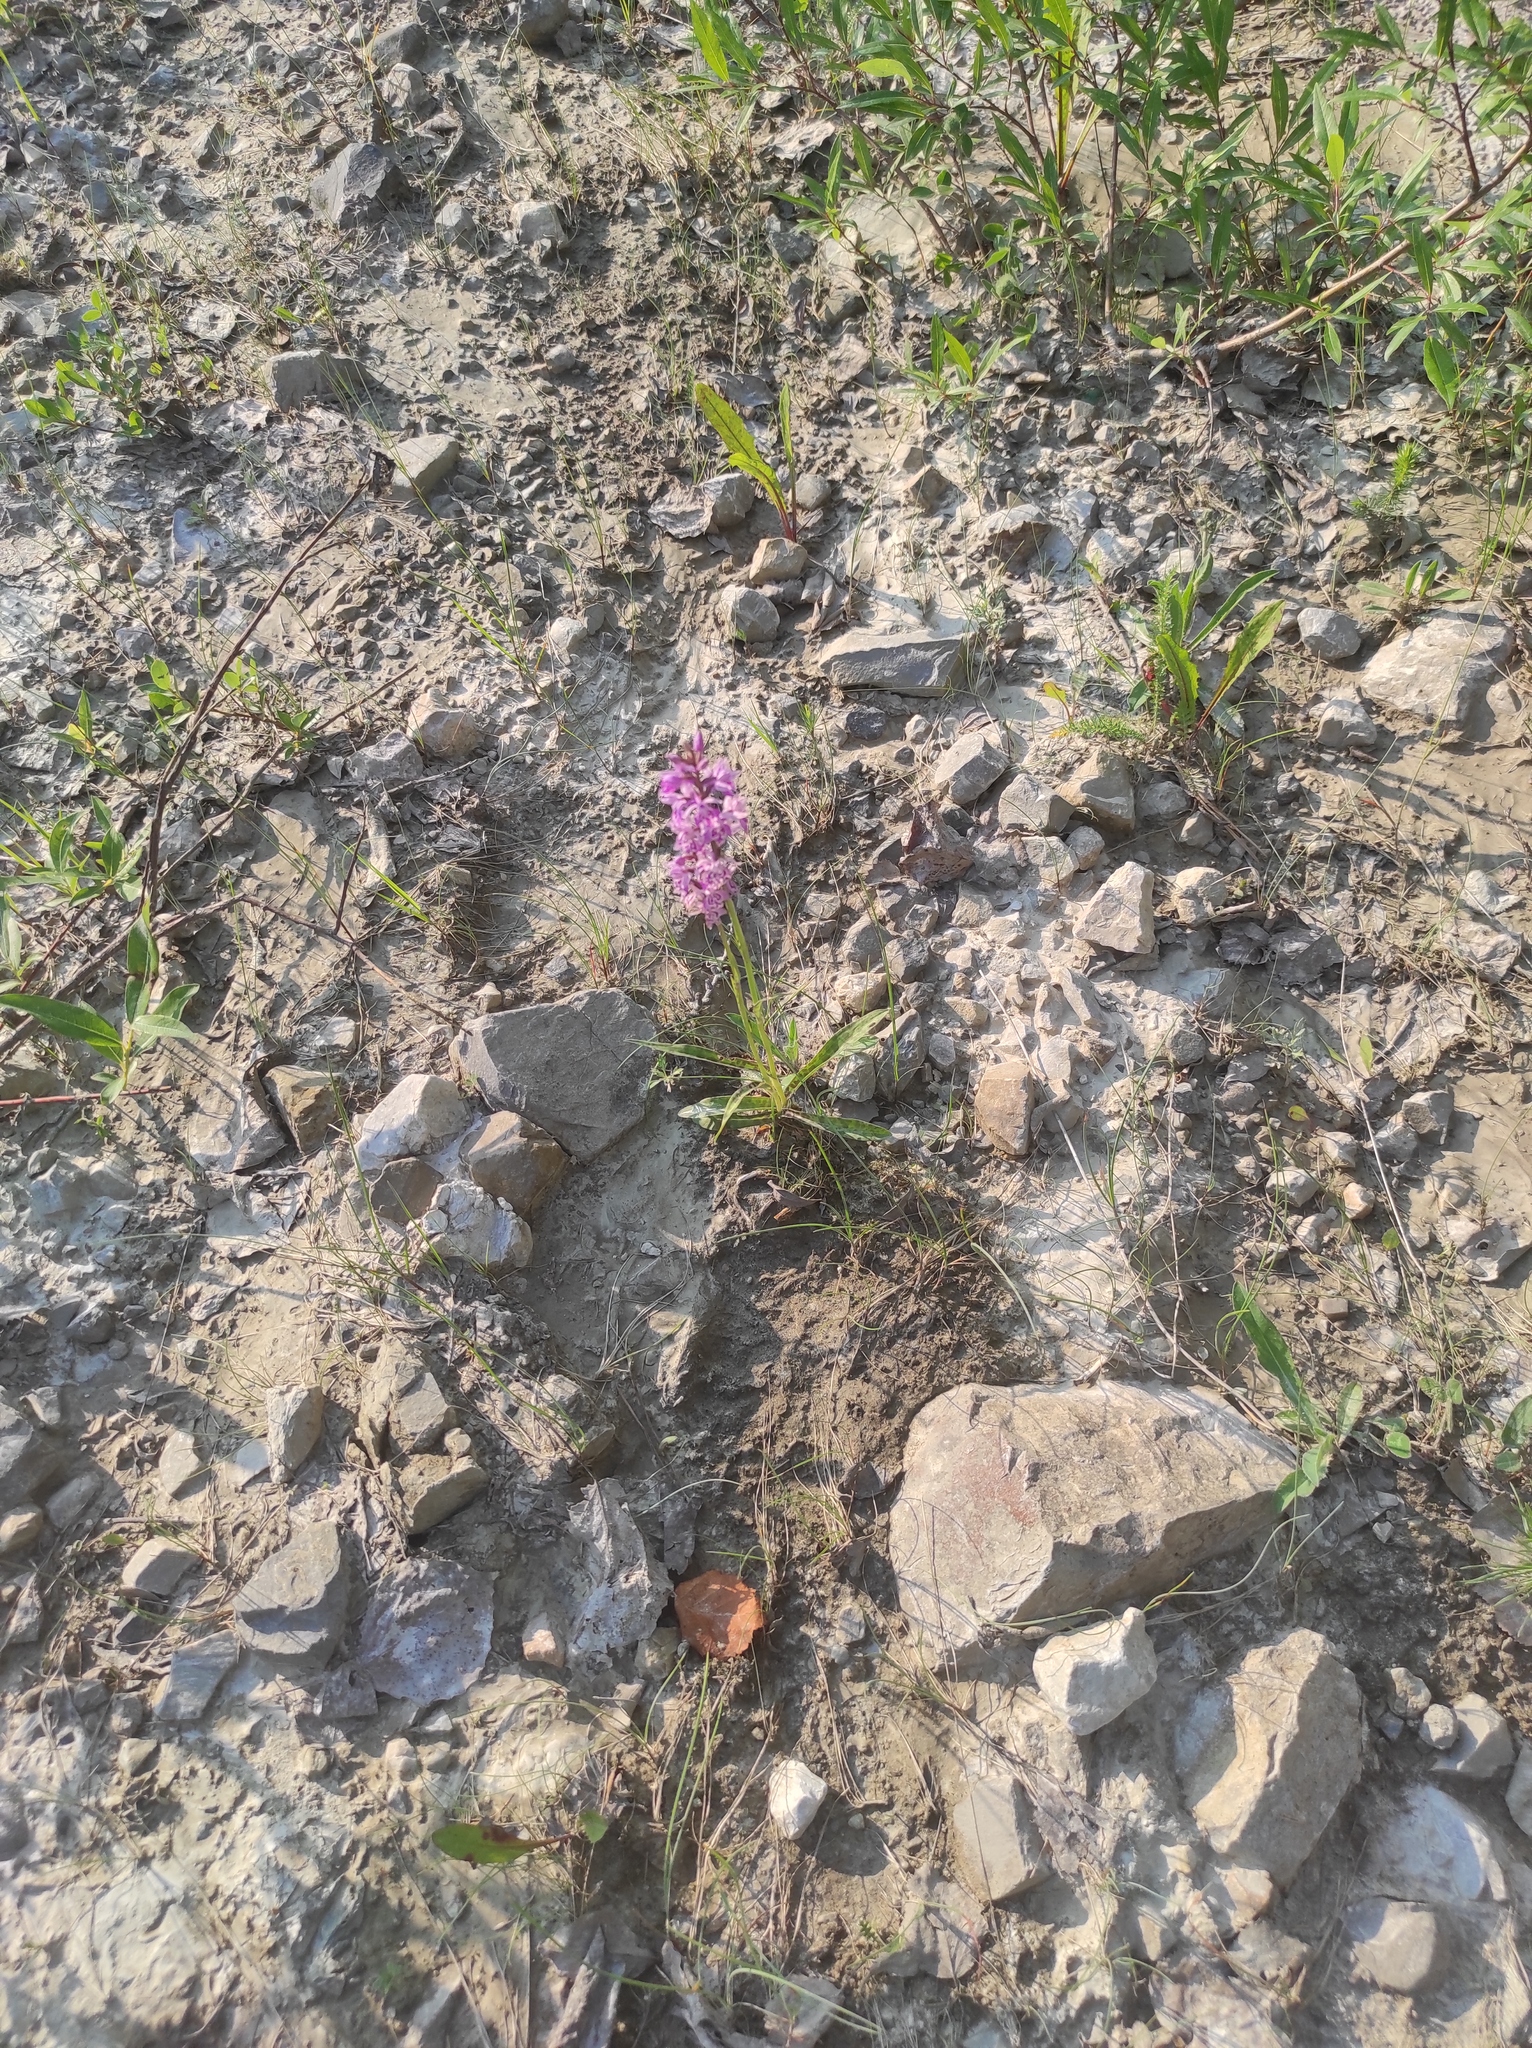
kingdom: Plantae
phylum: Tracheophyta
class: Liliopsida
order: Asparagales
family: Orchidaceae
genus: Dactylorhiza
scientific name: Dactylorhiza maculata
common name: Heath spotted-orchid
